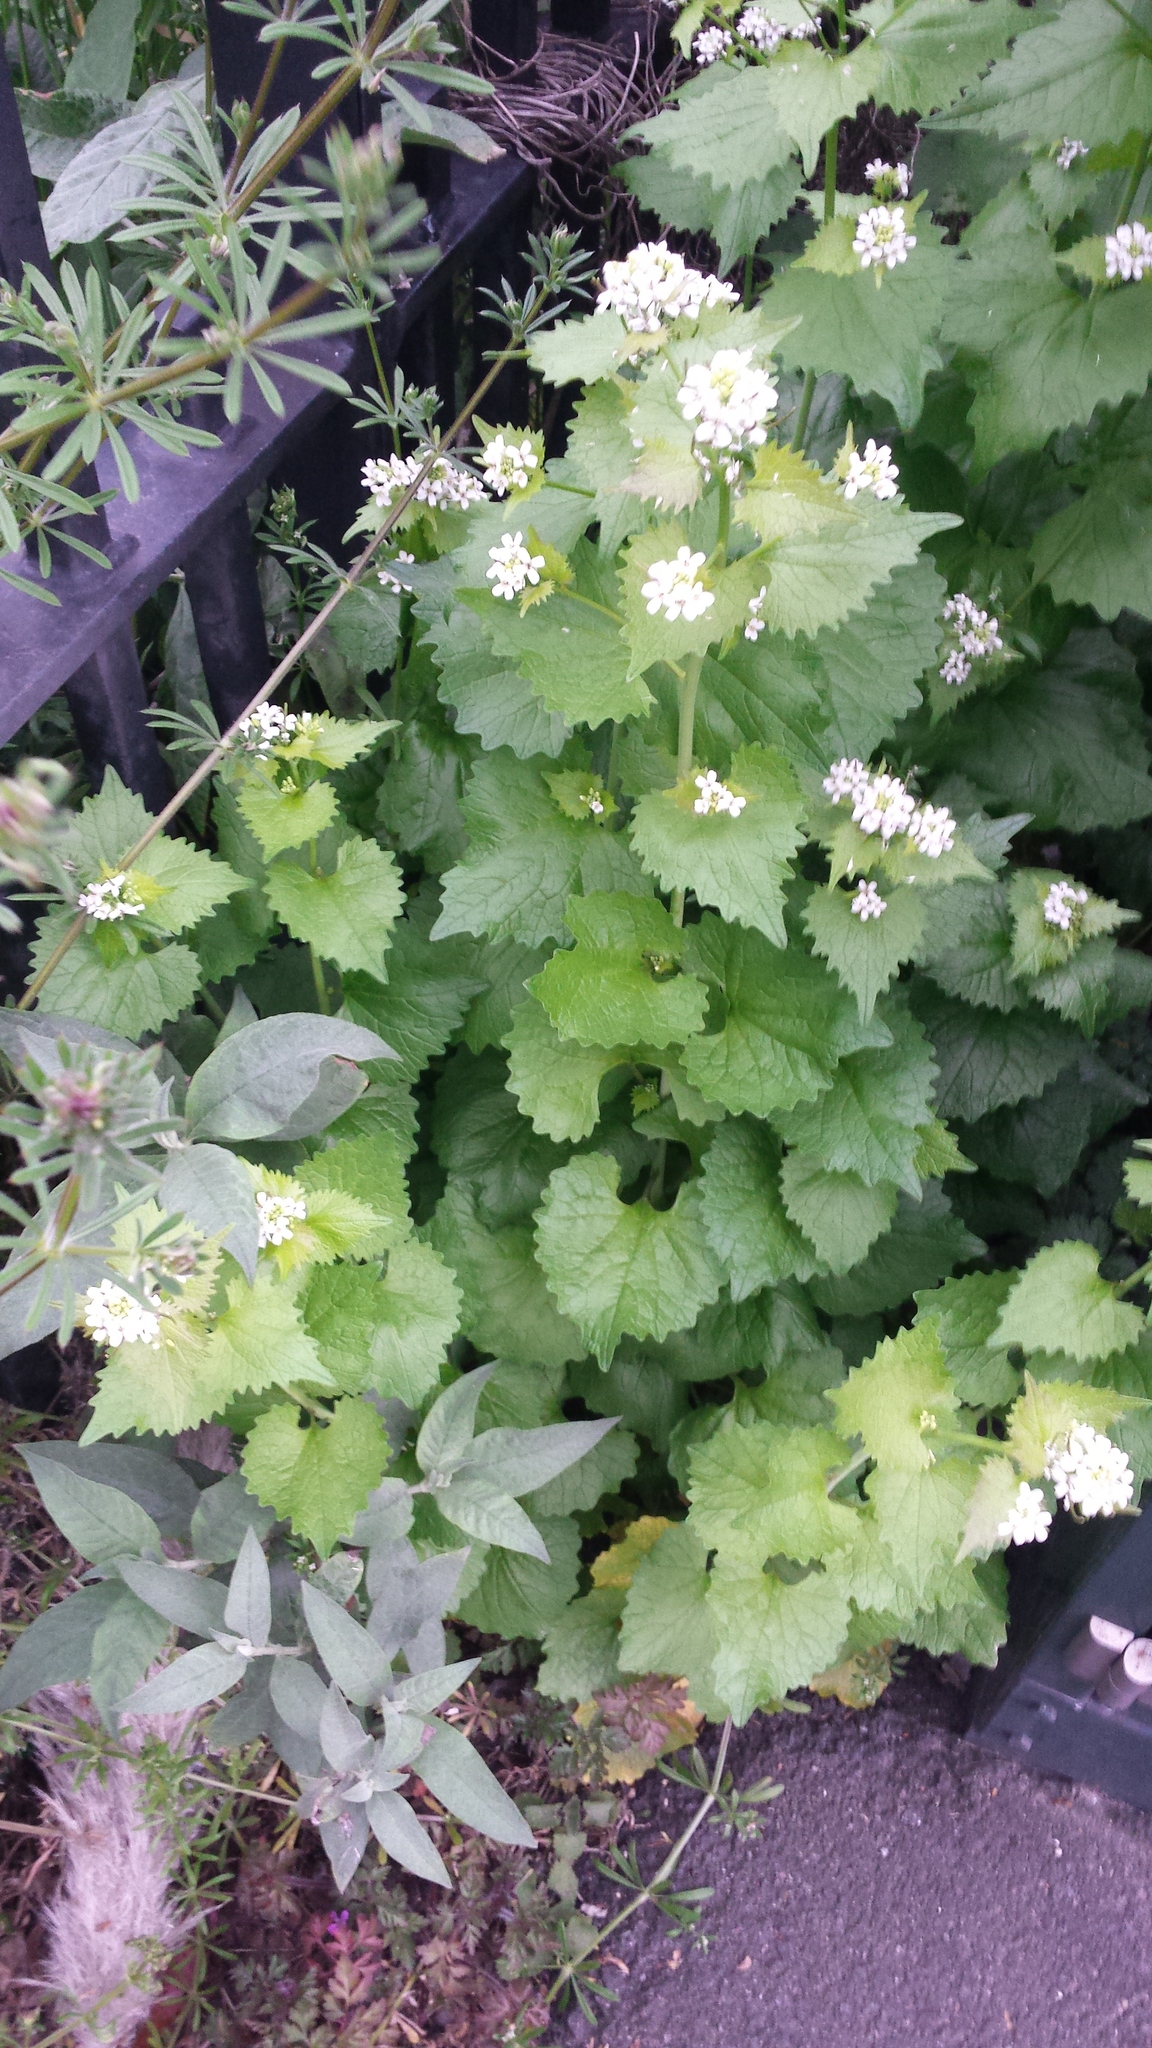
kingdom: Plantae
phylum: Tracheophyta
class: Magnoliopsida
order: Brassicales
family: Brassicaceae
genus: Alliaria
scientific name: Alliaria petiolata
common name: Garlic mustard
